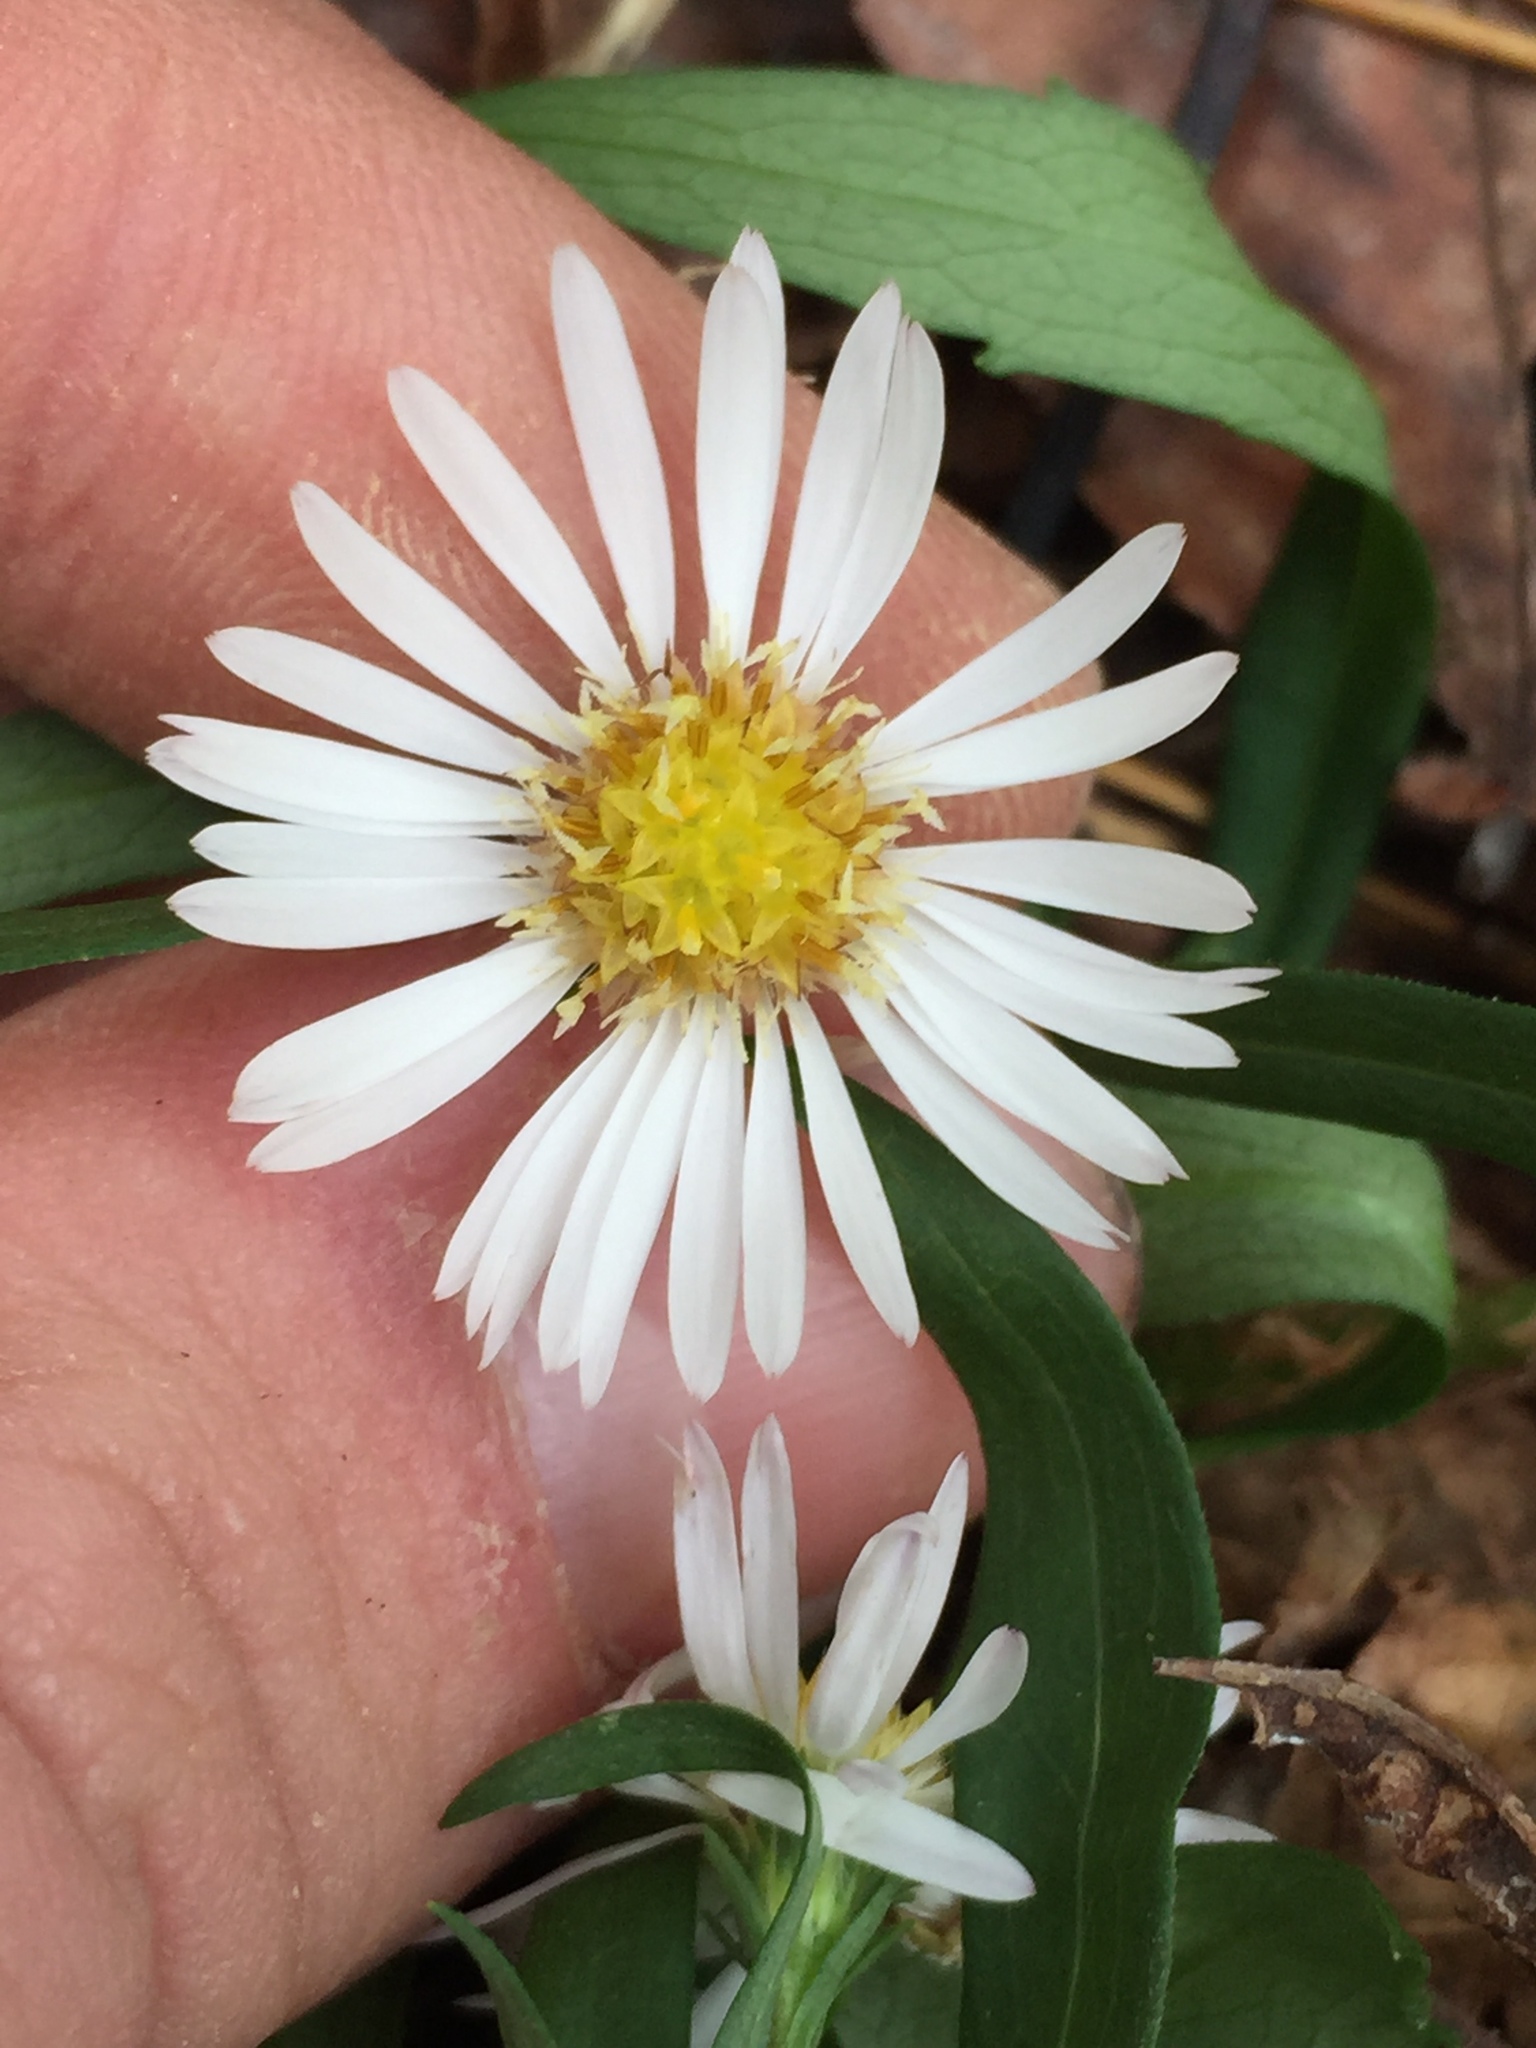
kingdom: Plantae
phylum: Tracheophyta
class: Magnoliopsida
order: Asterales
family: Asteraceae
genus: Symphyotrichum
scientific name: Symphyotrichum ontarionis
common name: Bottomland aster
